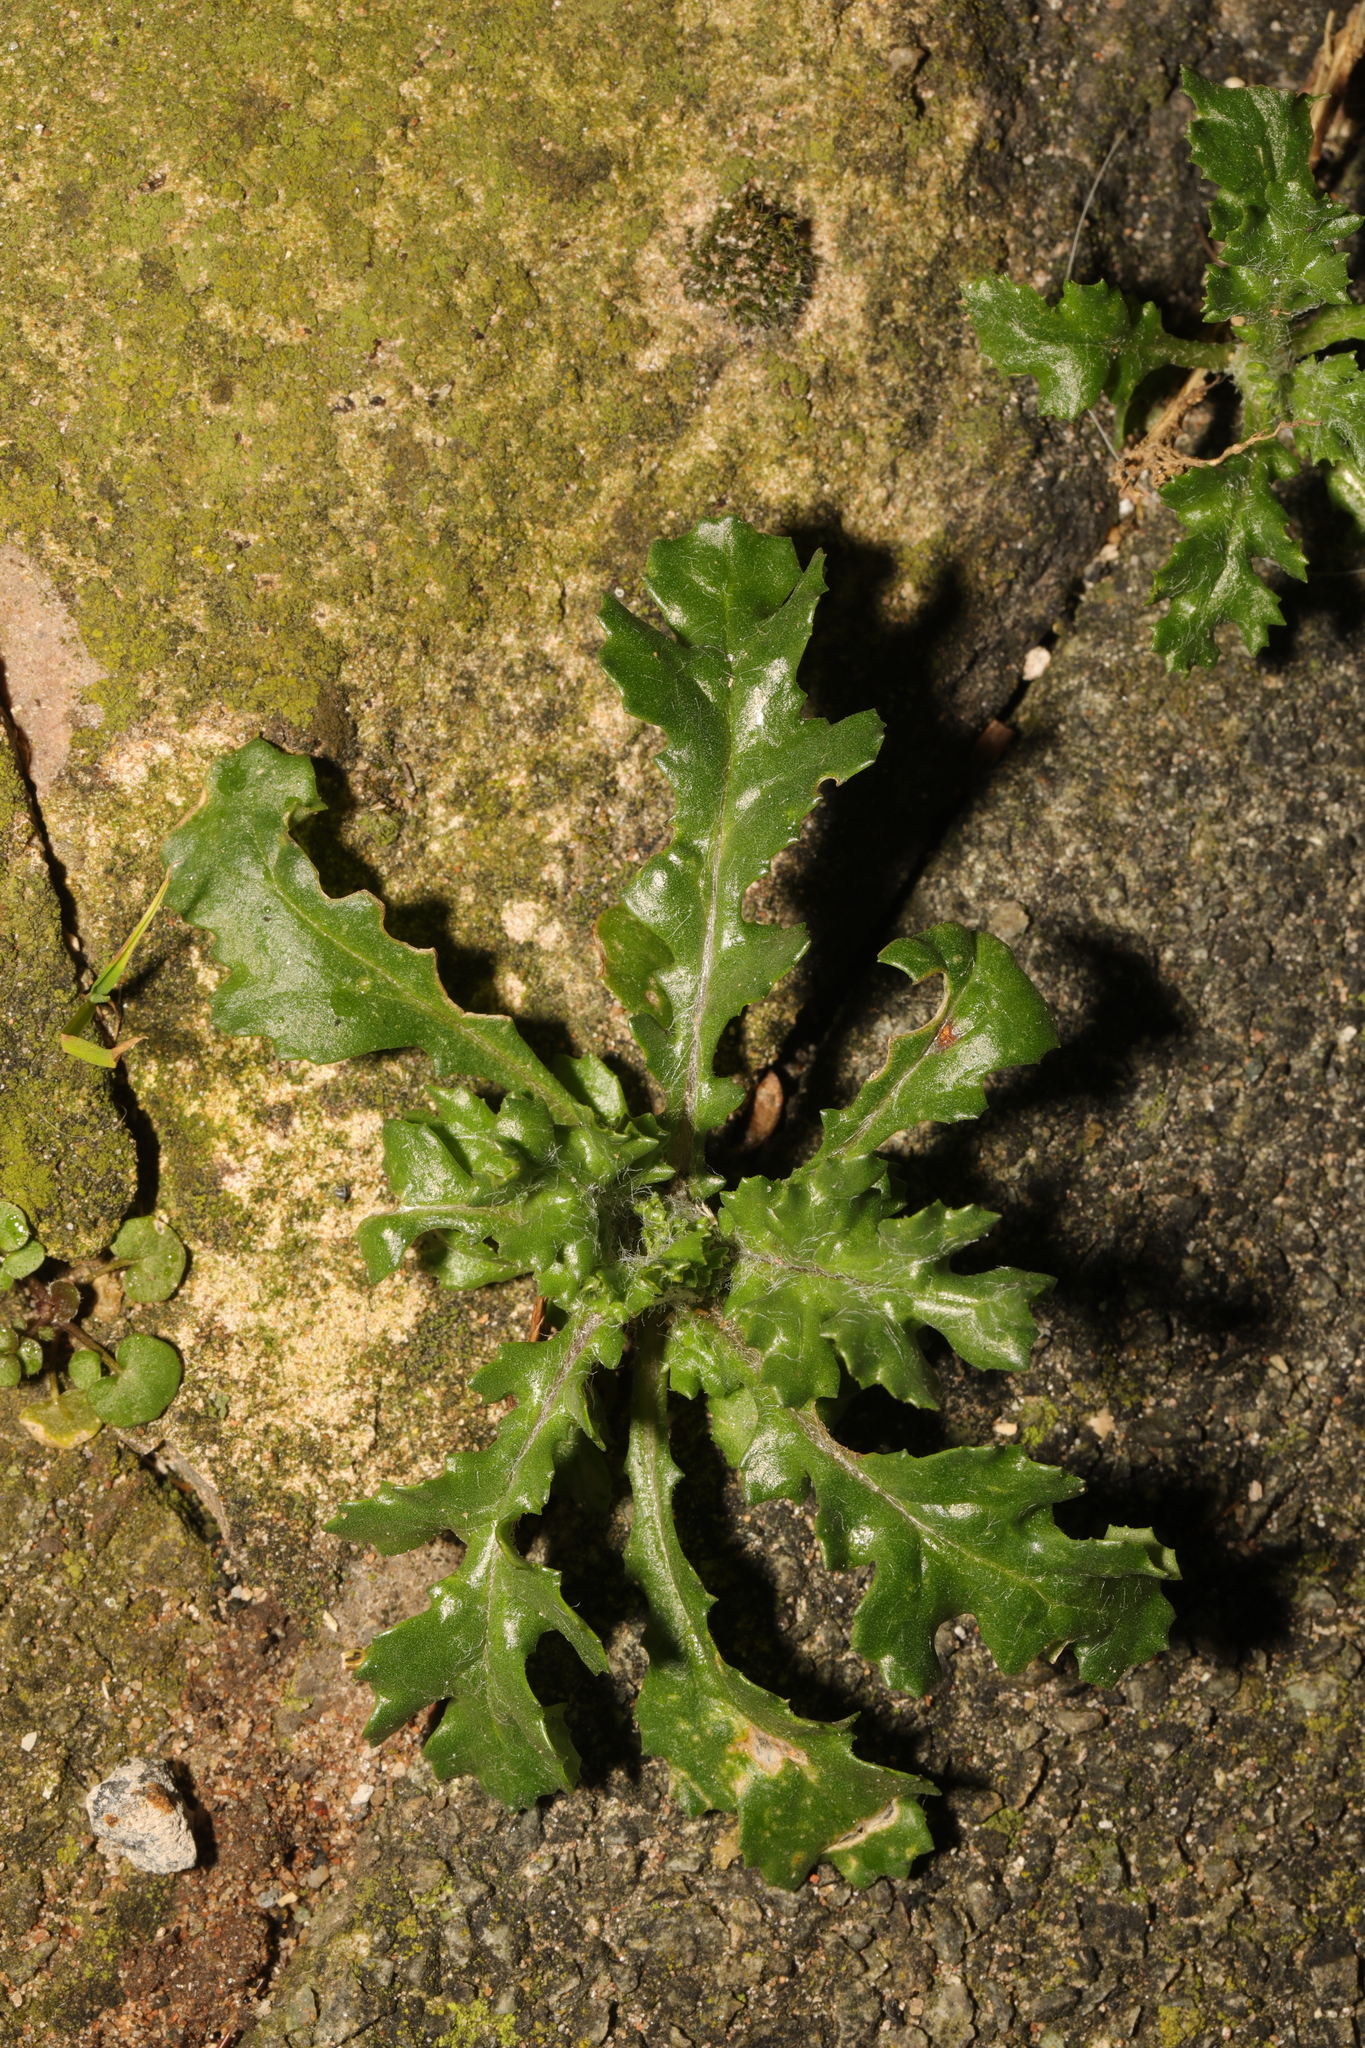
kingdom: Plantae
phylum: Tracheophyta
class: Magnoliopsida
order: Asterales
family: Asteraceae
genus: Senecio
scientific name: Senecio vulgaris
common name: Old-man-in-the-spring
